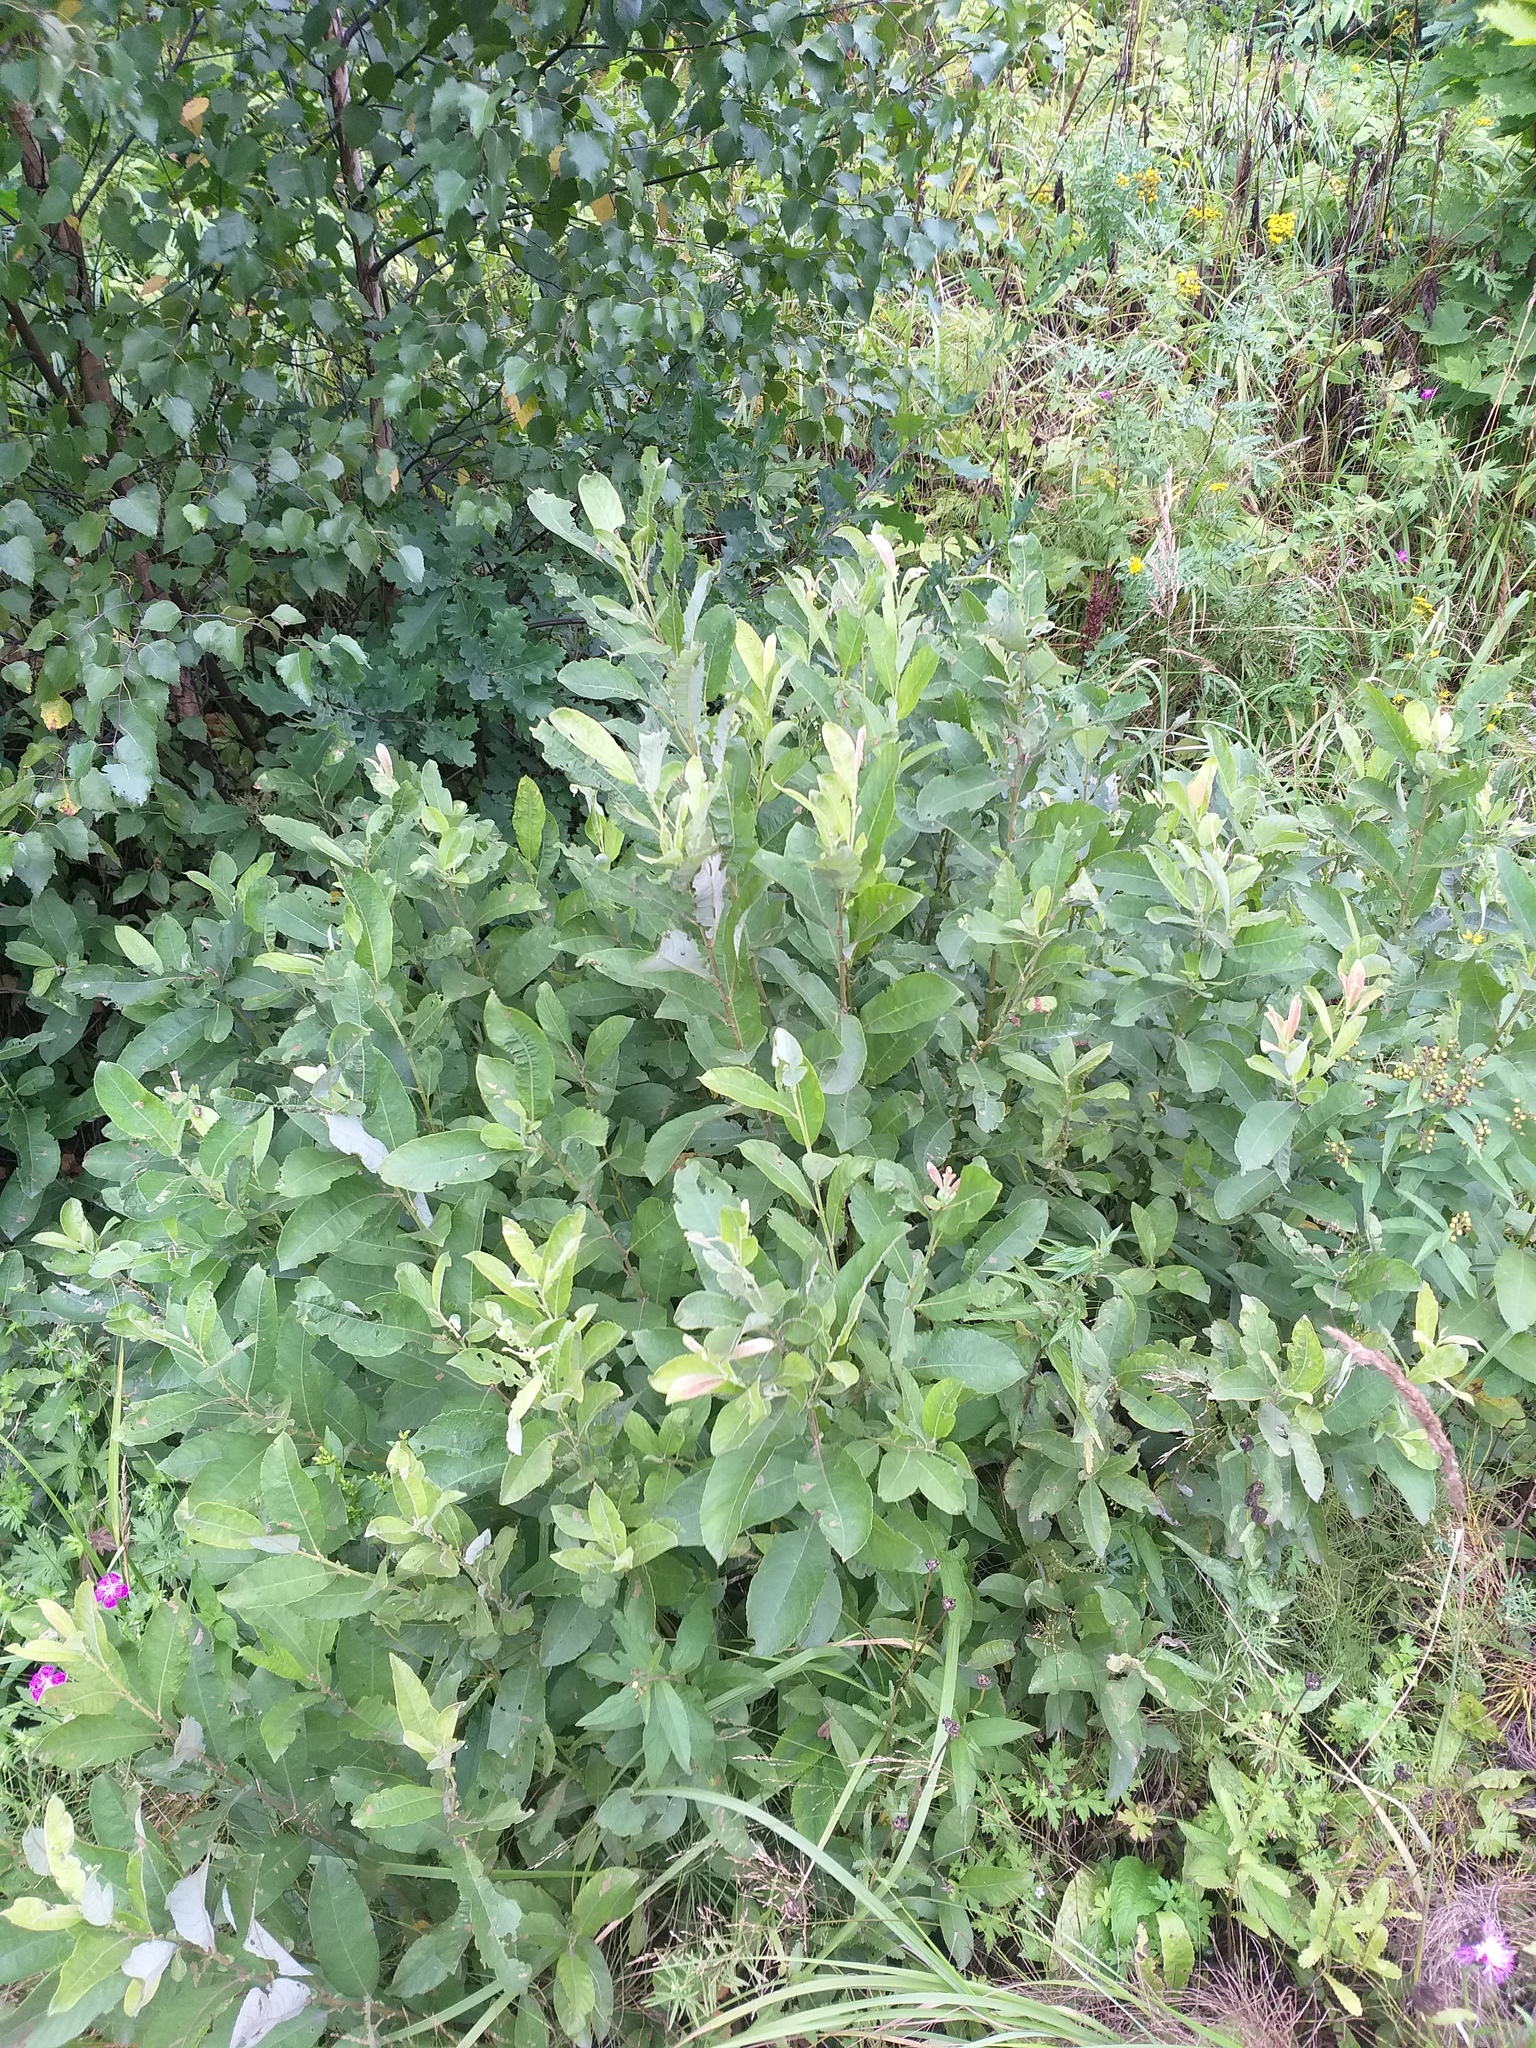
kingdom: Plantae
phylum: Tracheophyta
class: Magnoliopsida
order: Malpighiales
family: Salicaceae
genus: Salix
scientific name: Salix cinerea
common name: Common sallow
